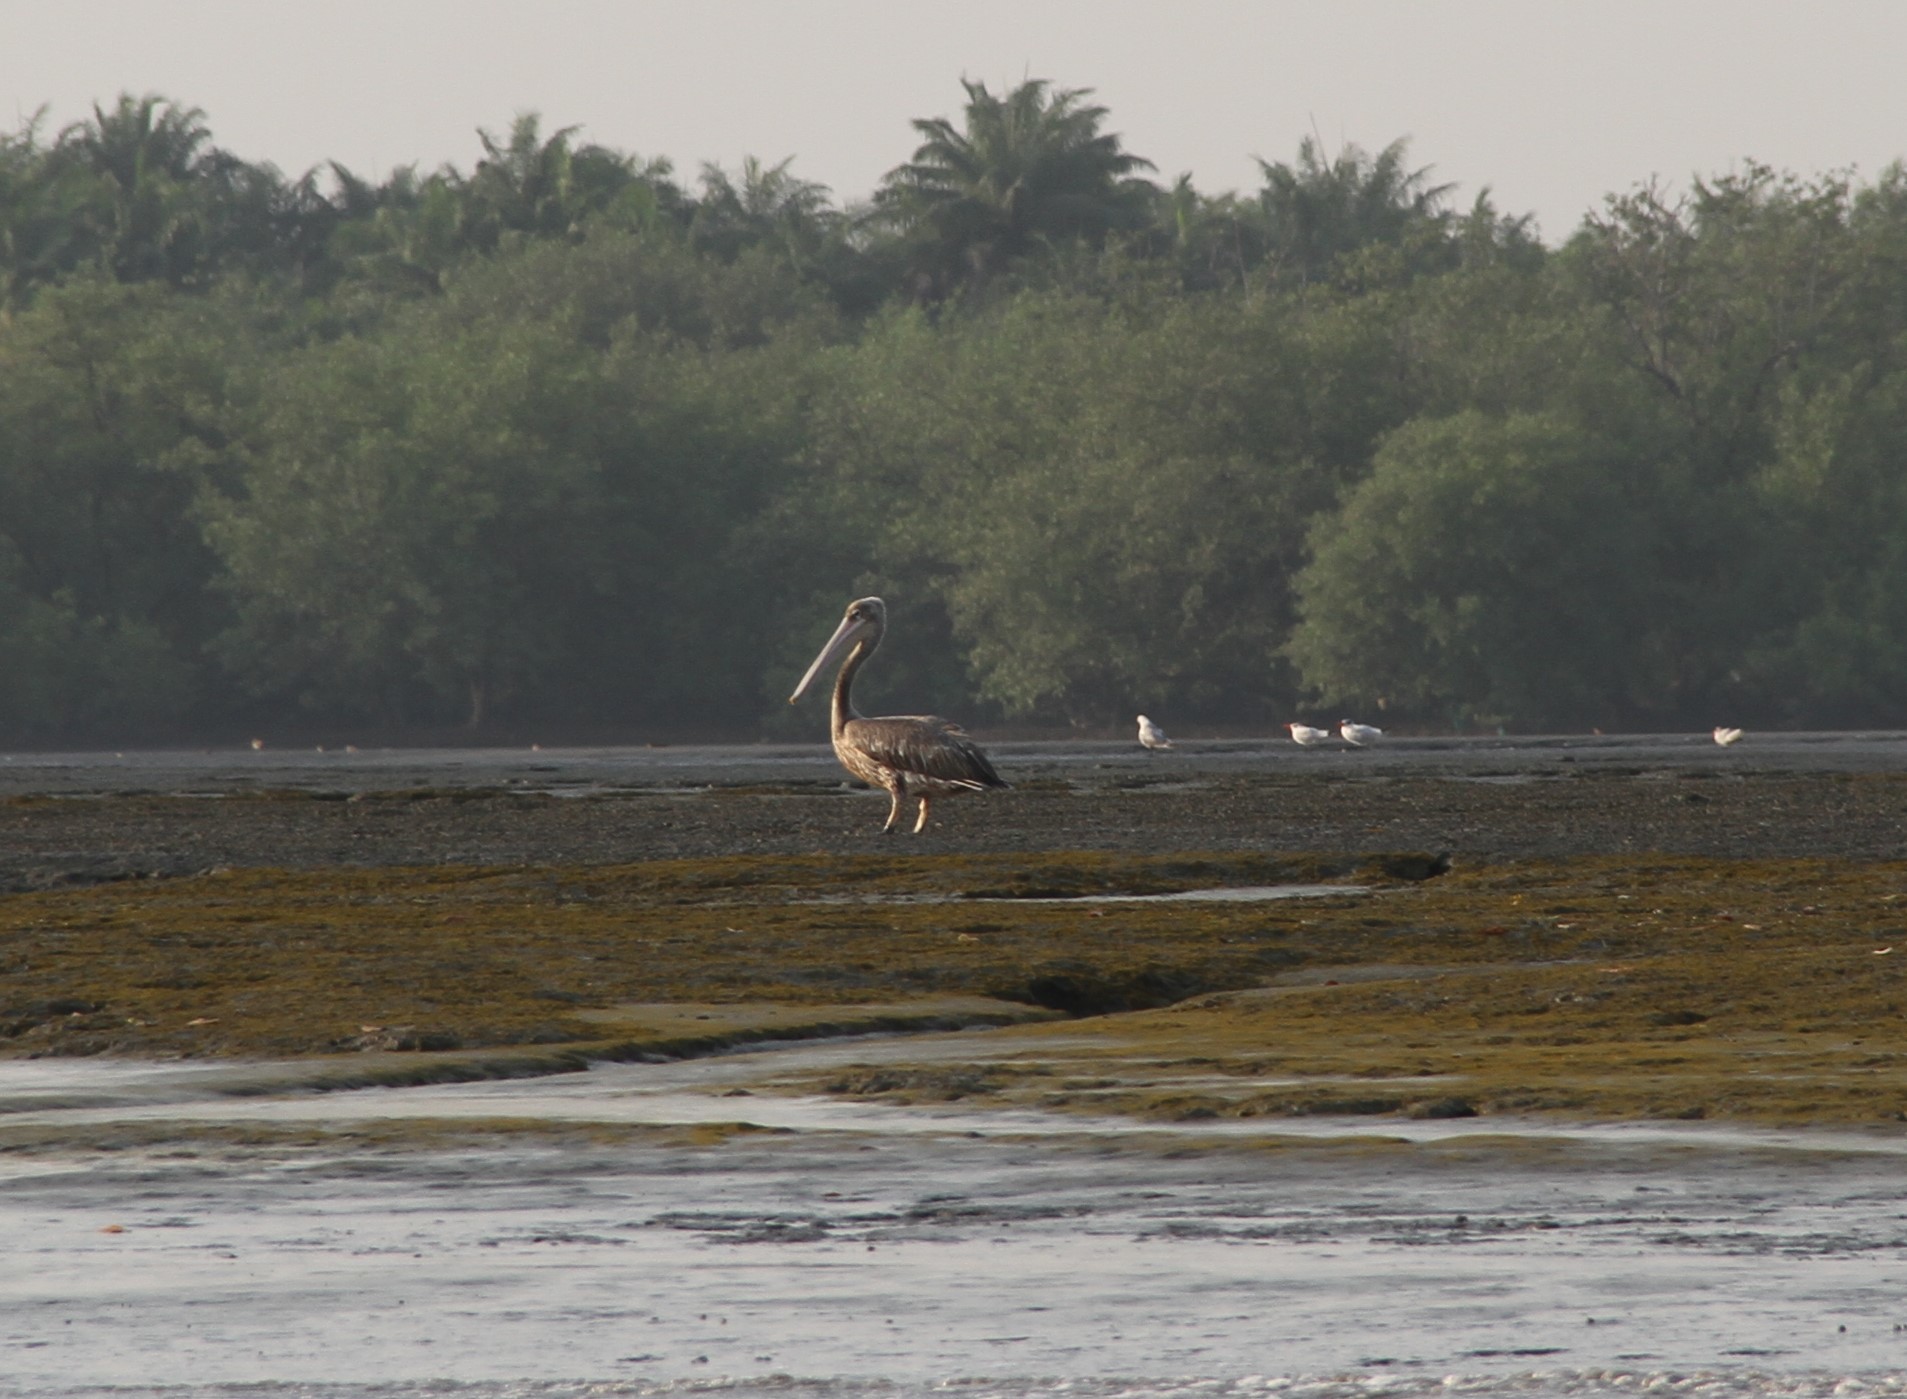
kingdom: Animalia
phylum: Chordata
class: Aves
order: Pelecaniformes
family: Pelecanidae
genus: Pelecanus
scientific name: Pelecanus onocrotalus
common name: Great white pelican
